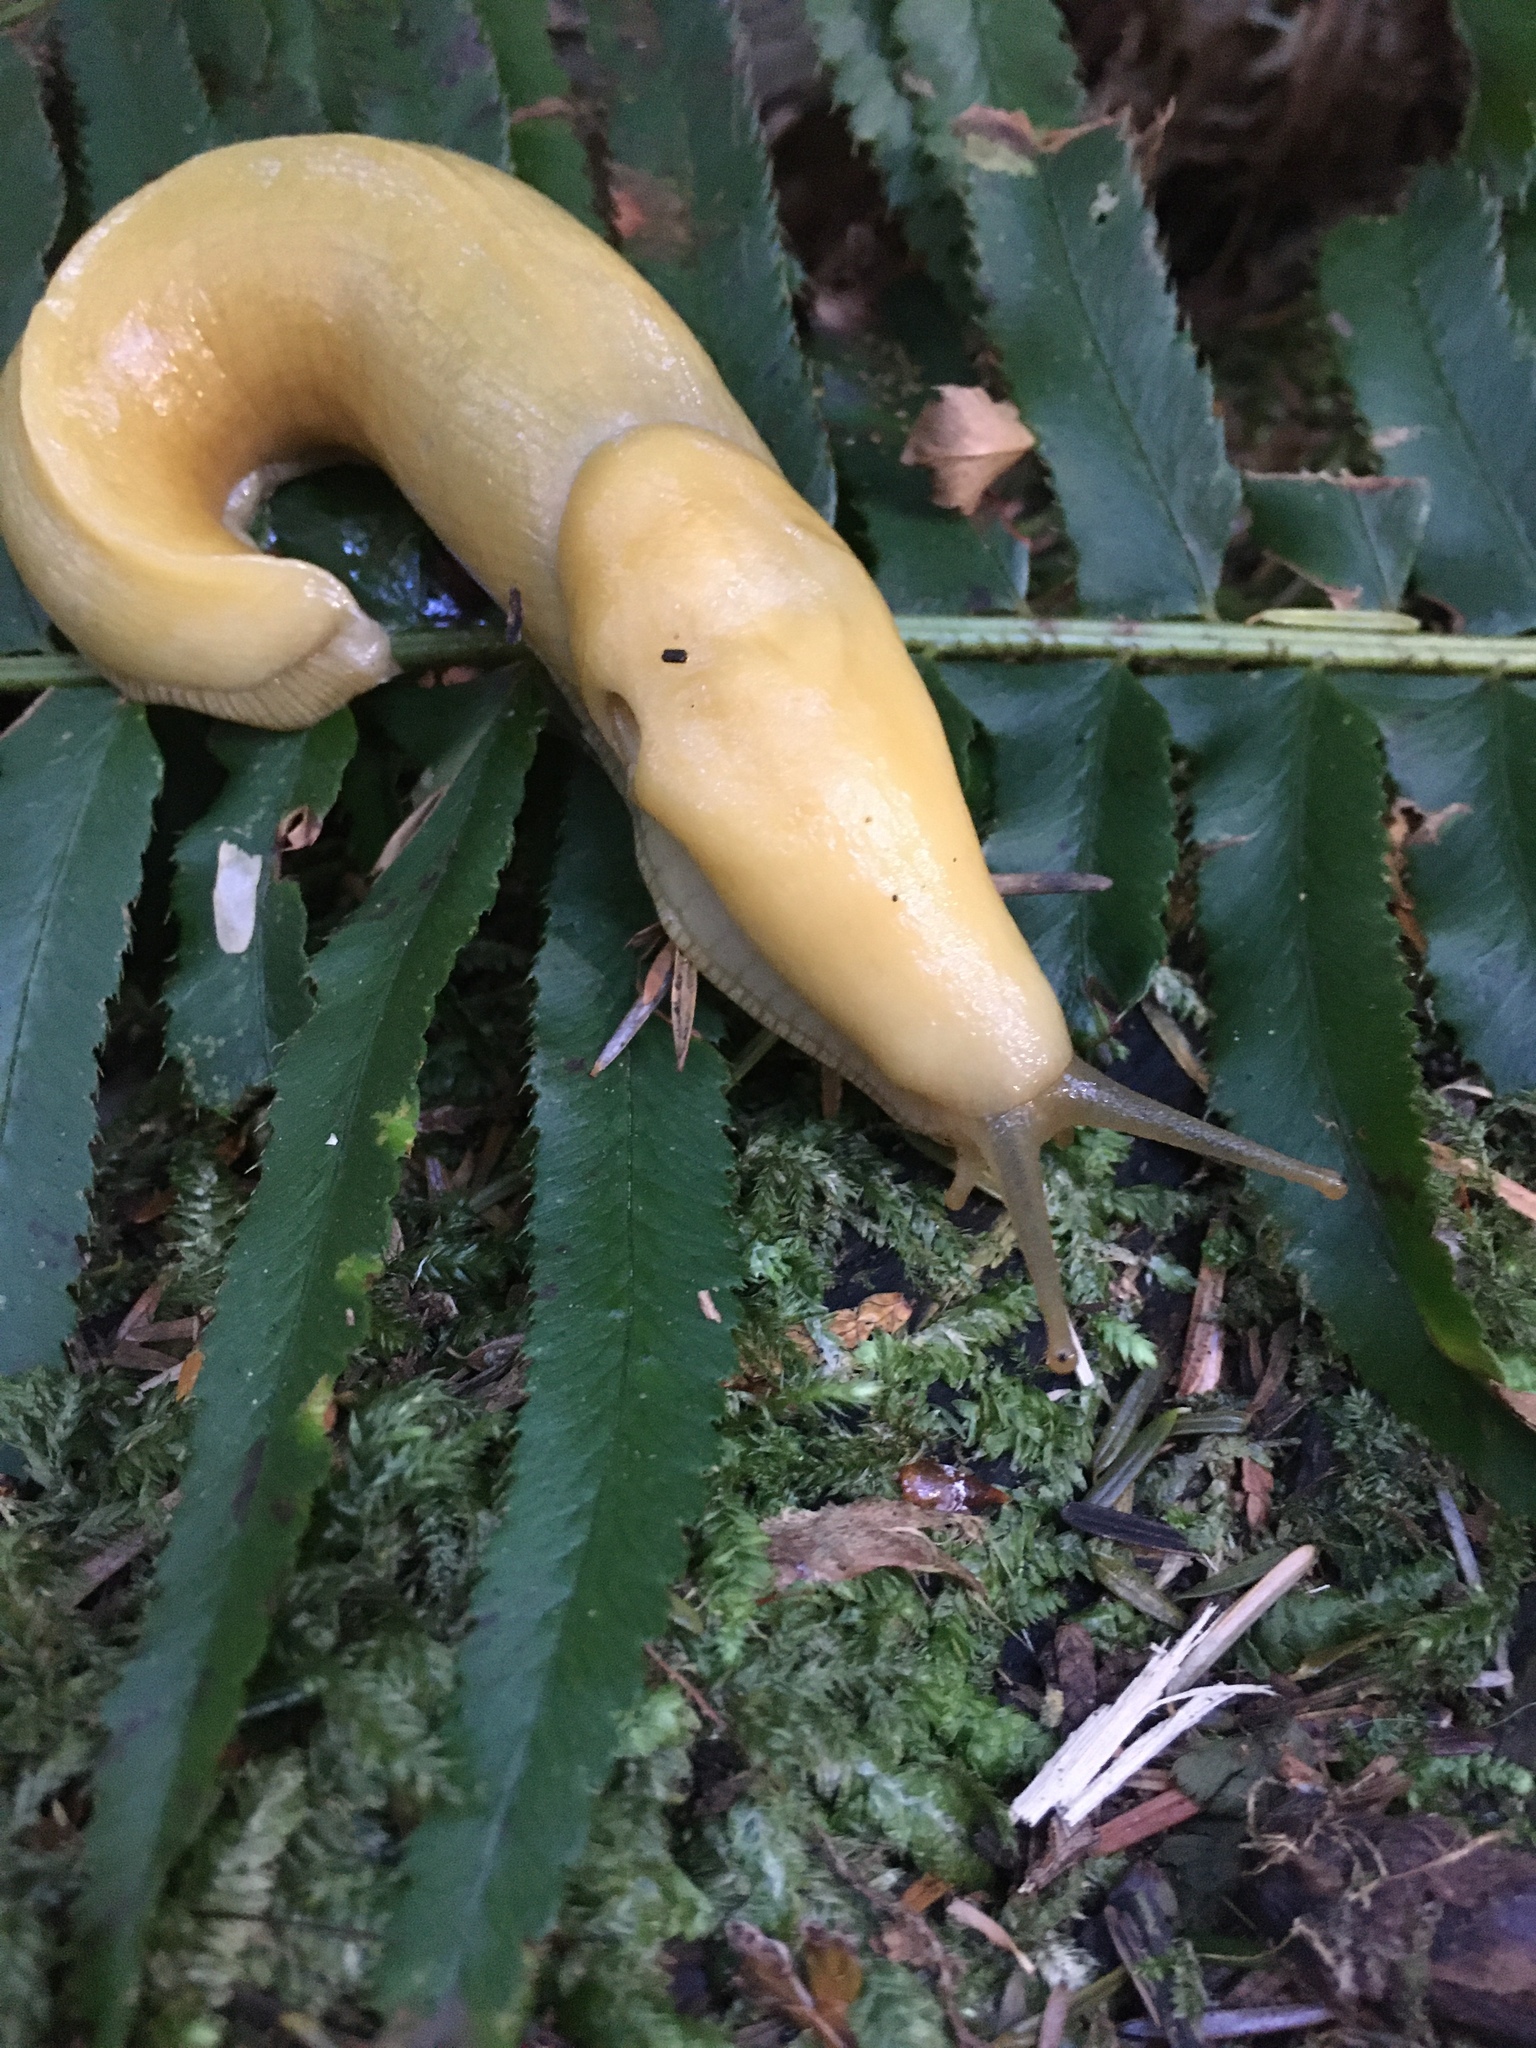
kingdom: Animalia
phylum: Mollusca
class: Gastropoda
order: Stylommatophora
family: Ariolimacidae
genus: Ariolimax
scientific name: Ariolimax columbianus
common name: Pacific banana slug
